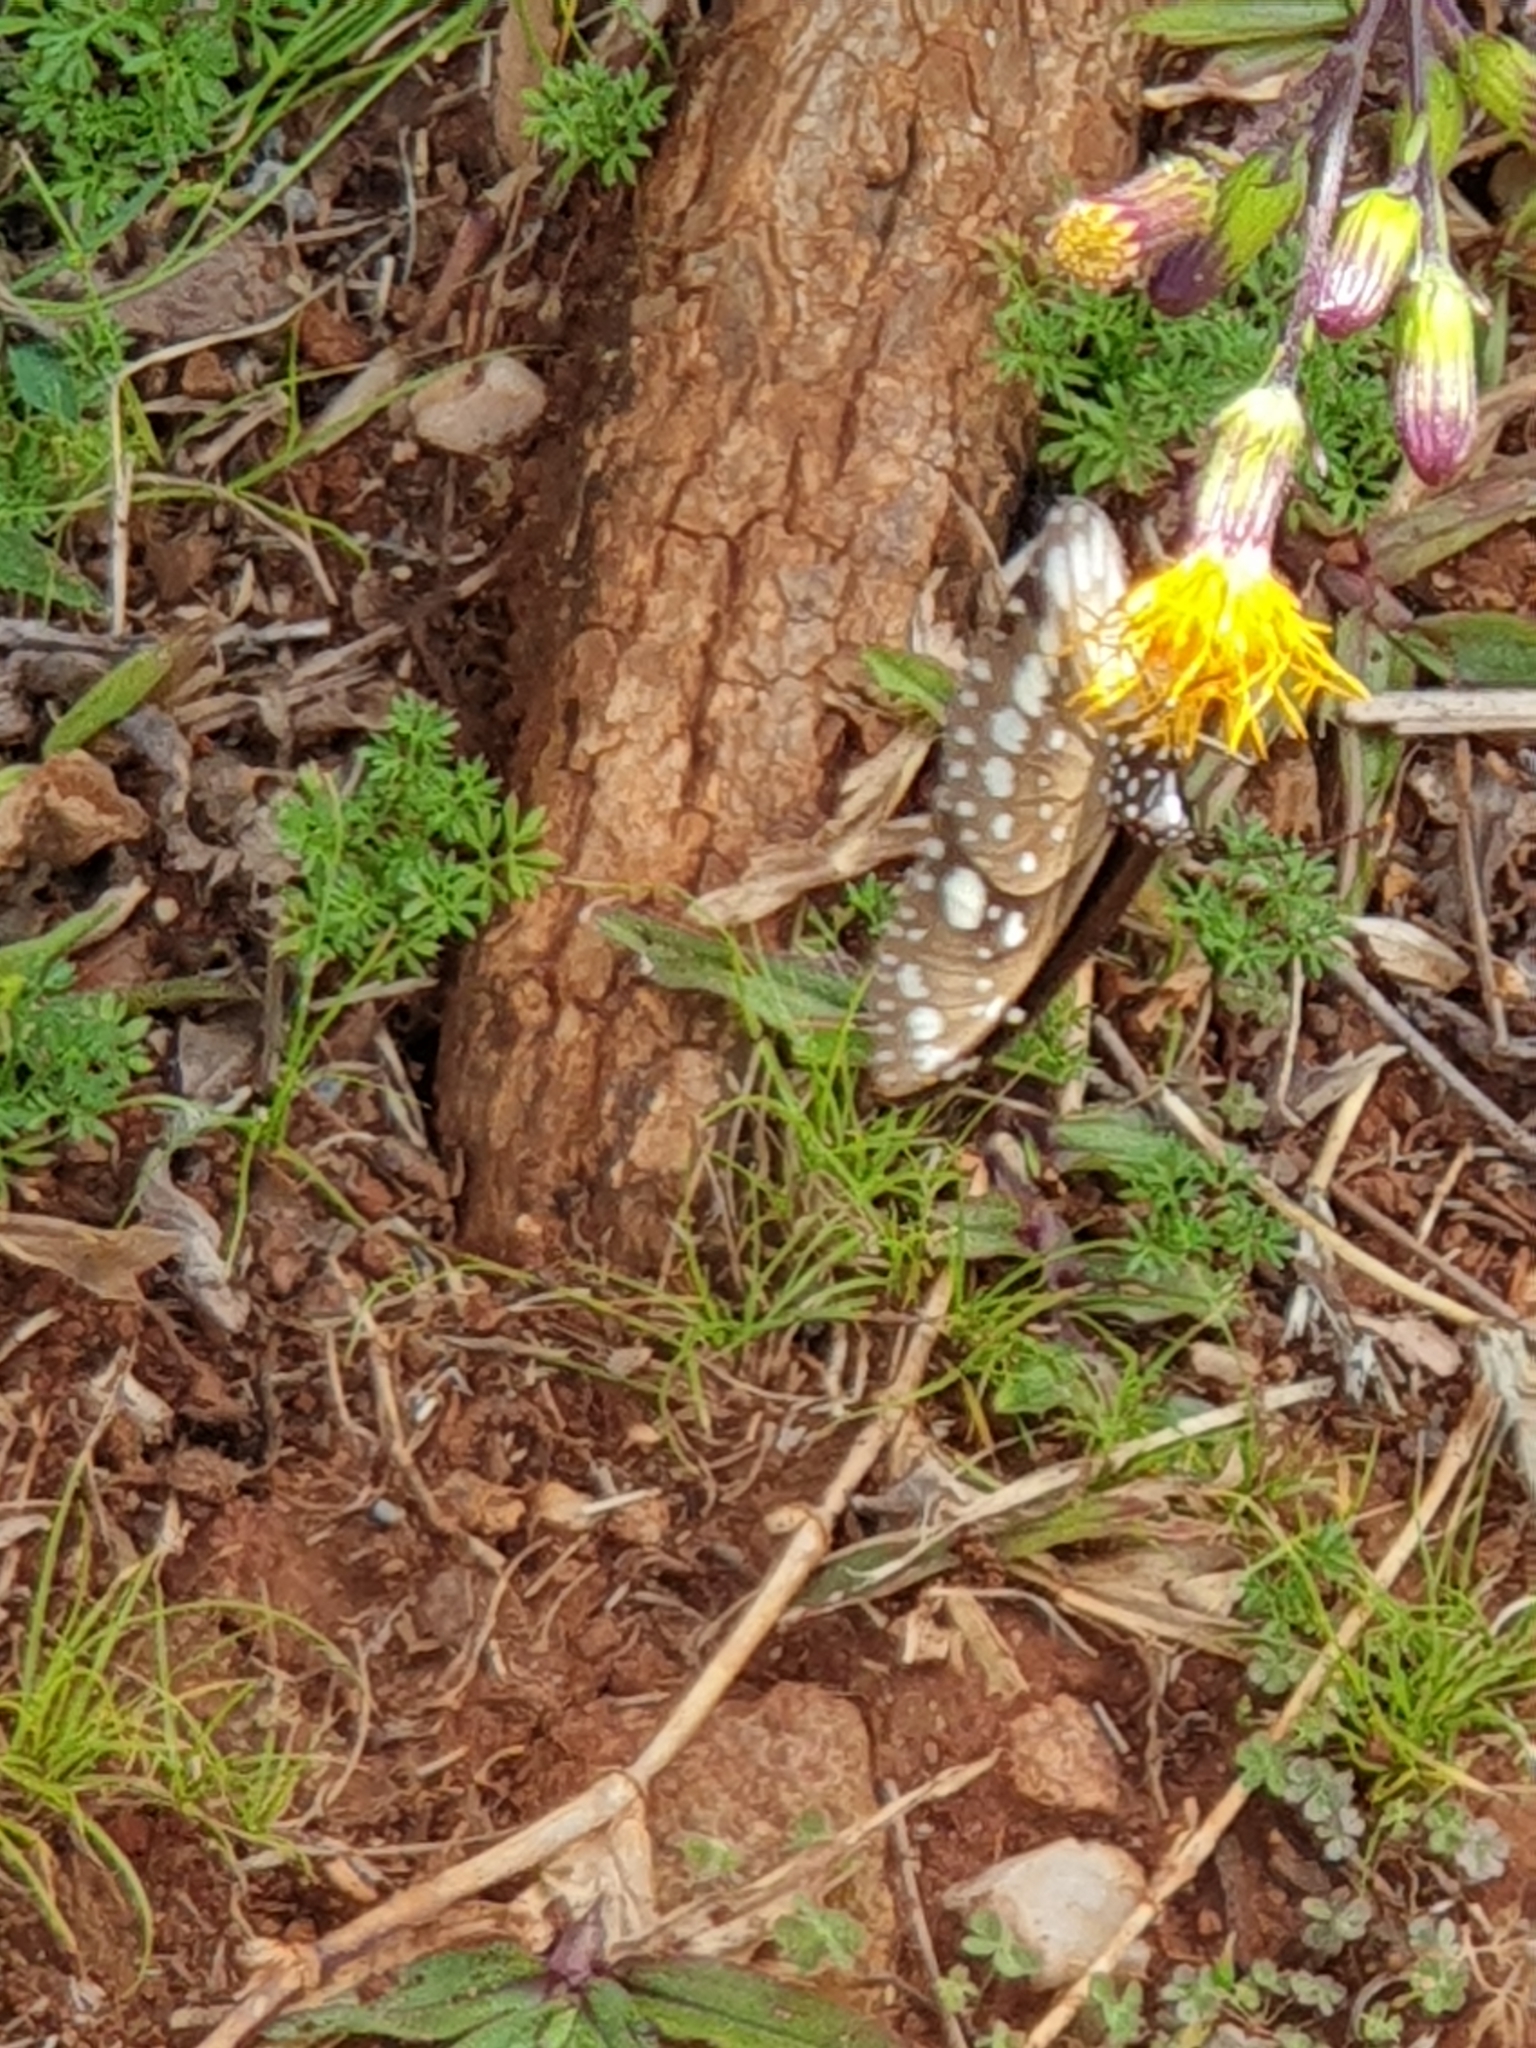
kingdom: Animalia
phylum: Arthropoda
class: Insecta
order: Lepidoptera
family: Nymphalidae
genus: Euploea
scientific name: Euploea core
